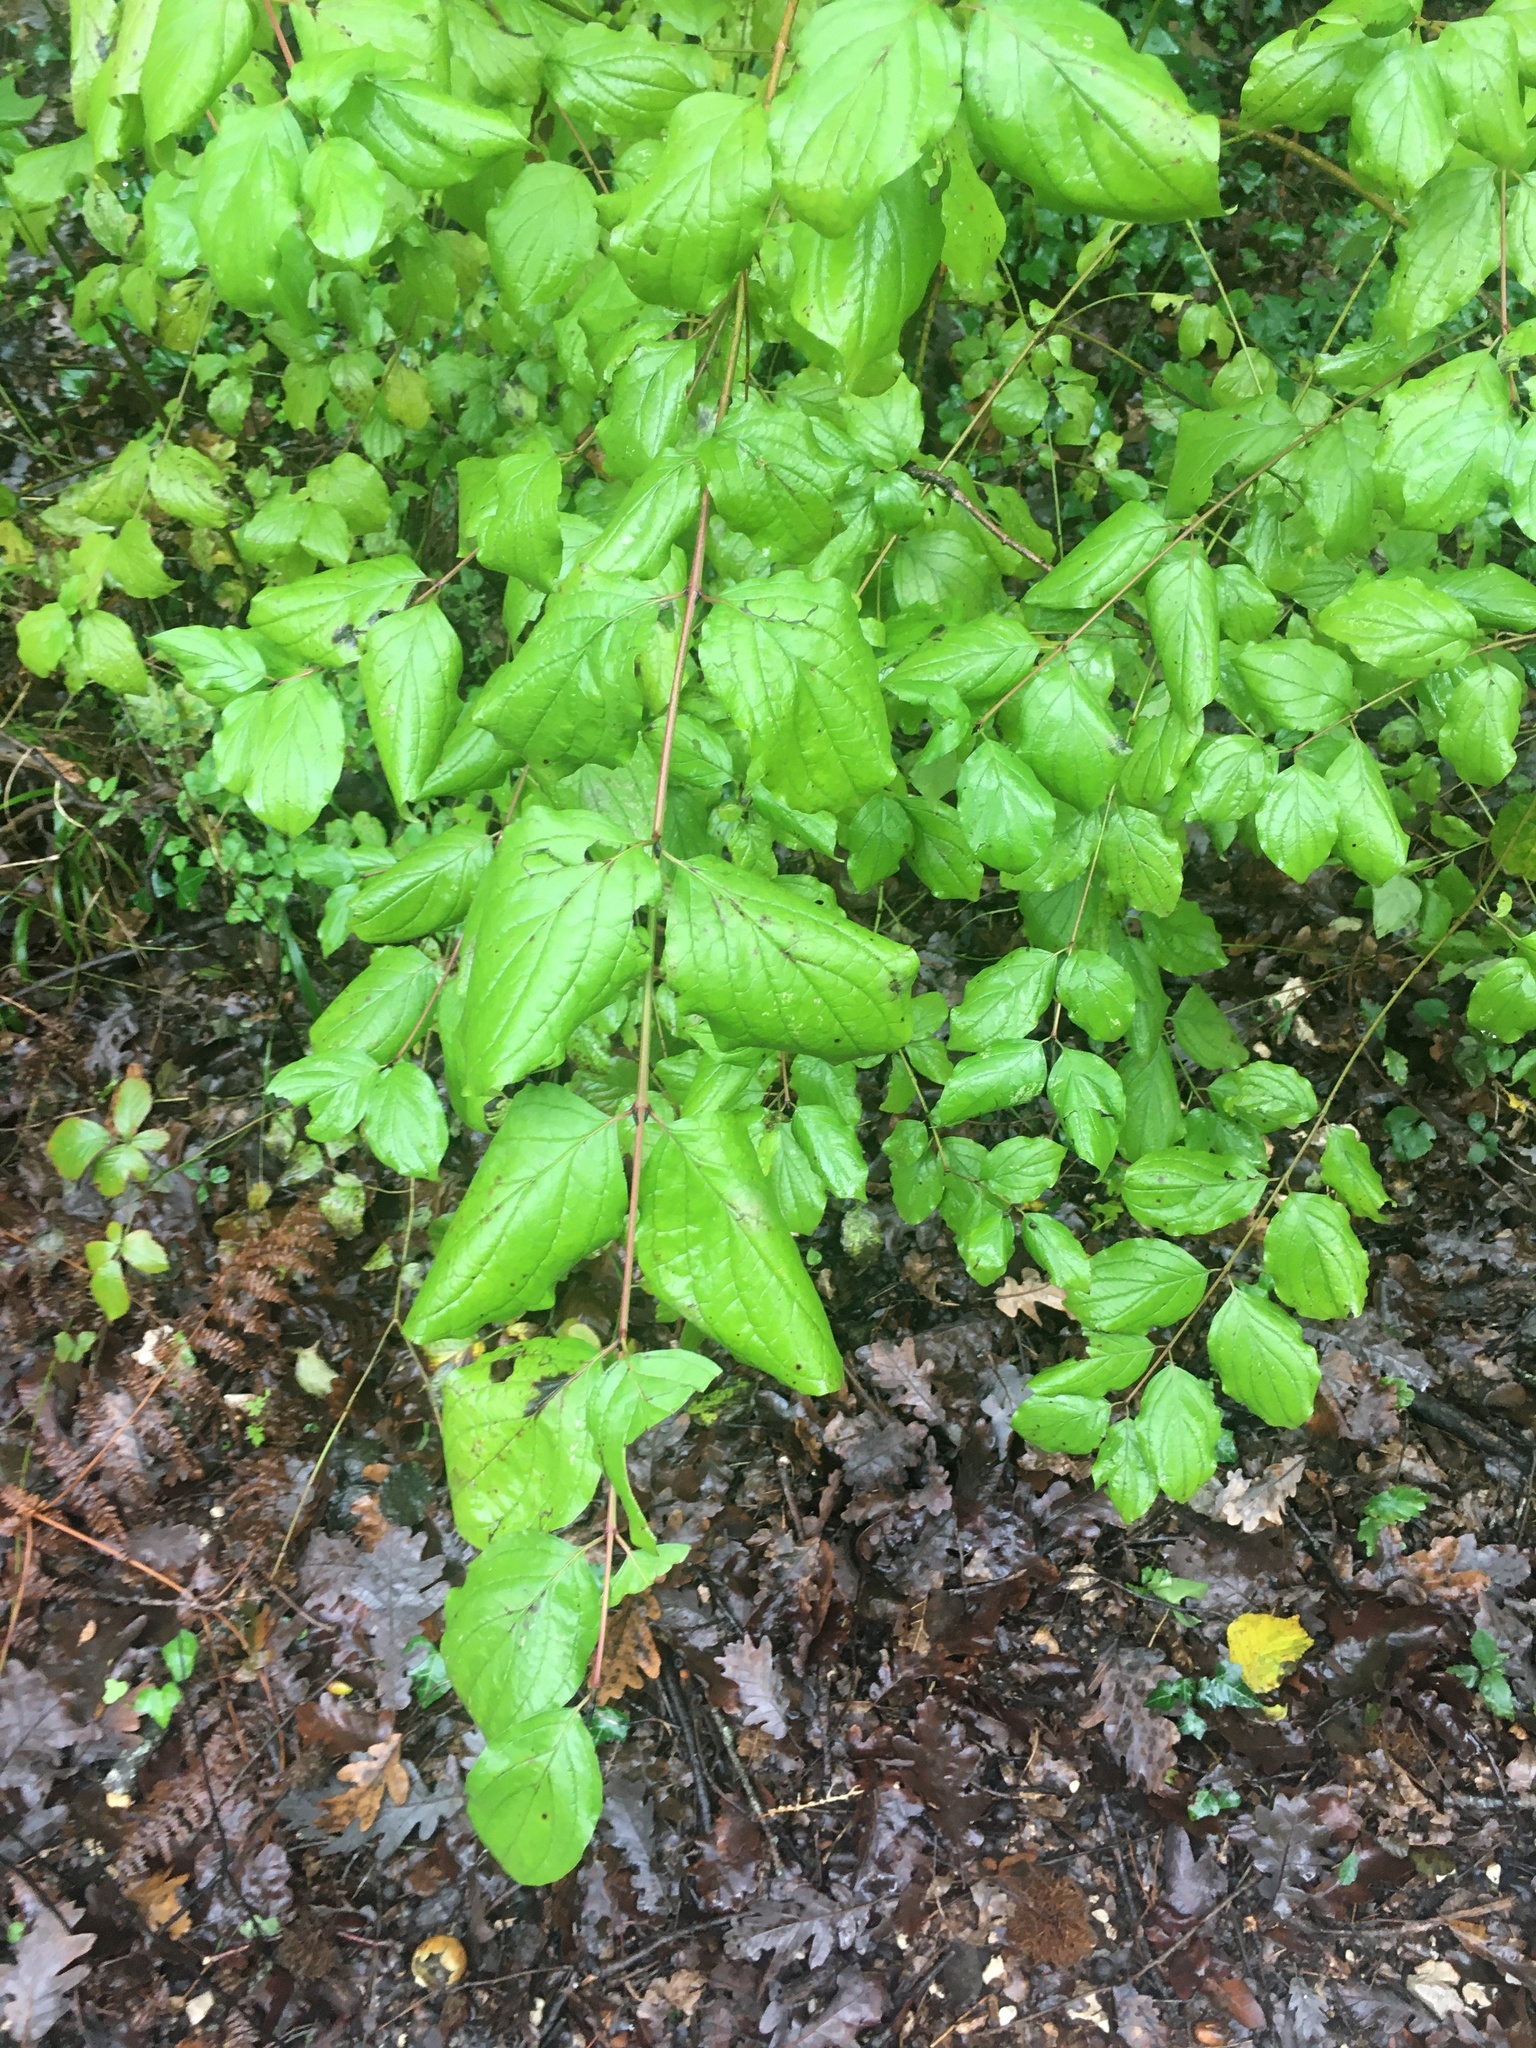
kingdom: Plantae
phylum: Tracheophyta
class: Magnoliopsida
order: Cornales
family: Cornaceae
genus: Cornus
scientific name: Cornus sanguinea
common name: Dogwood
